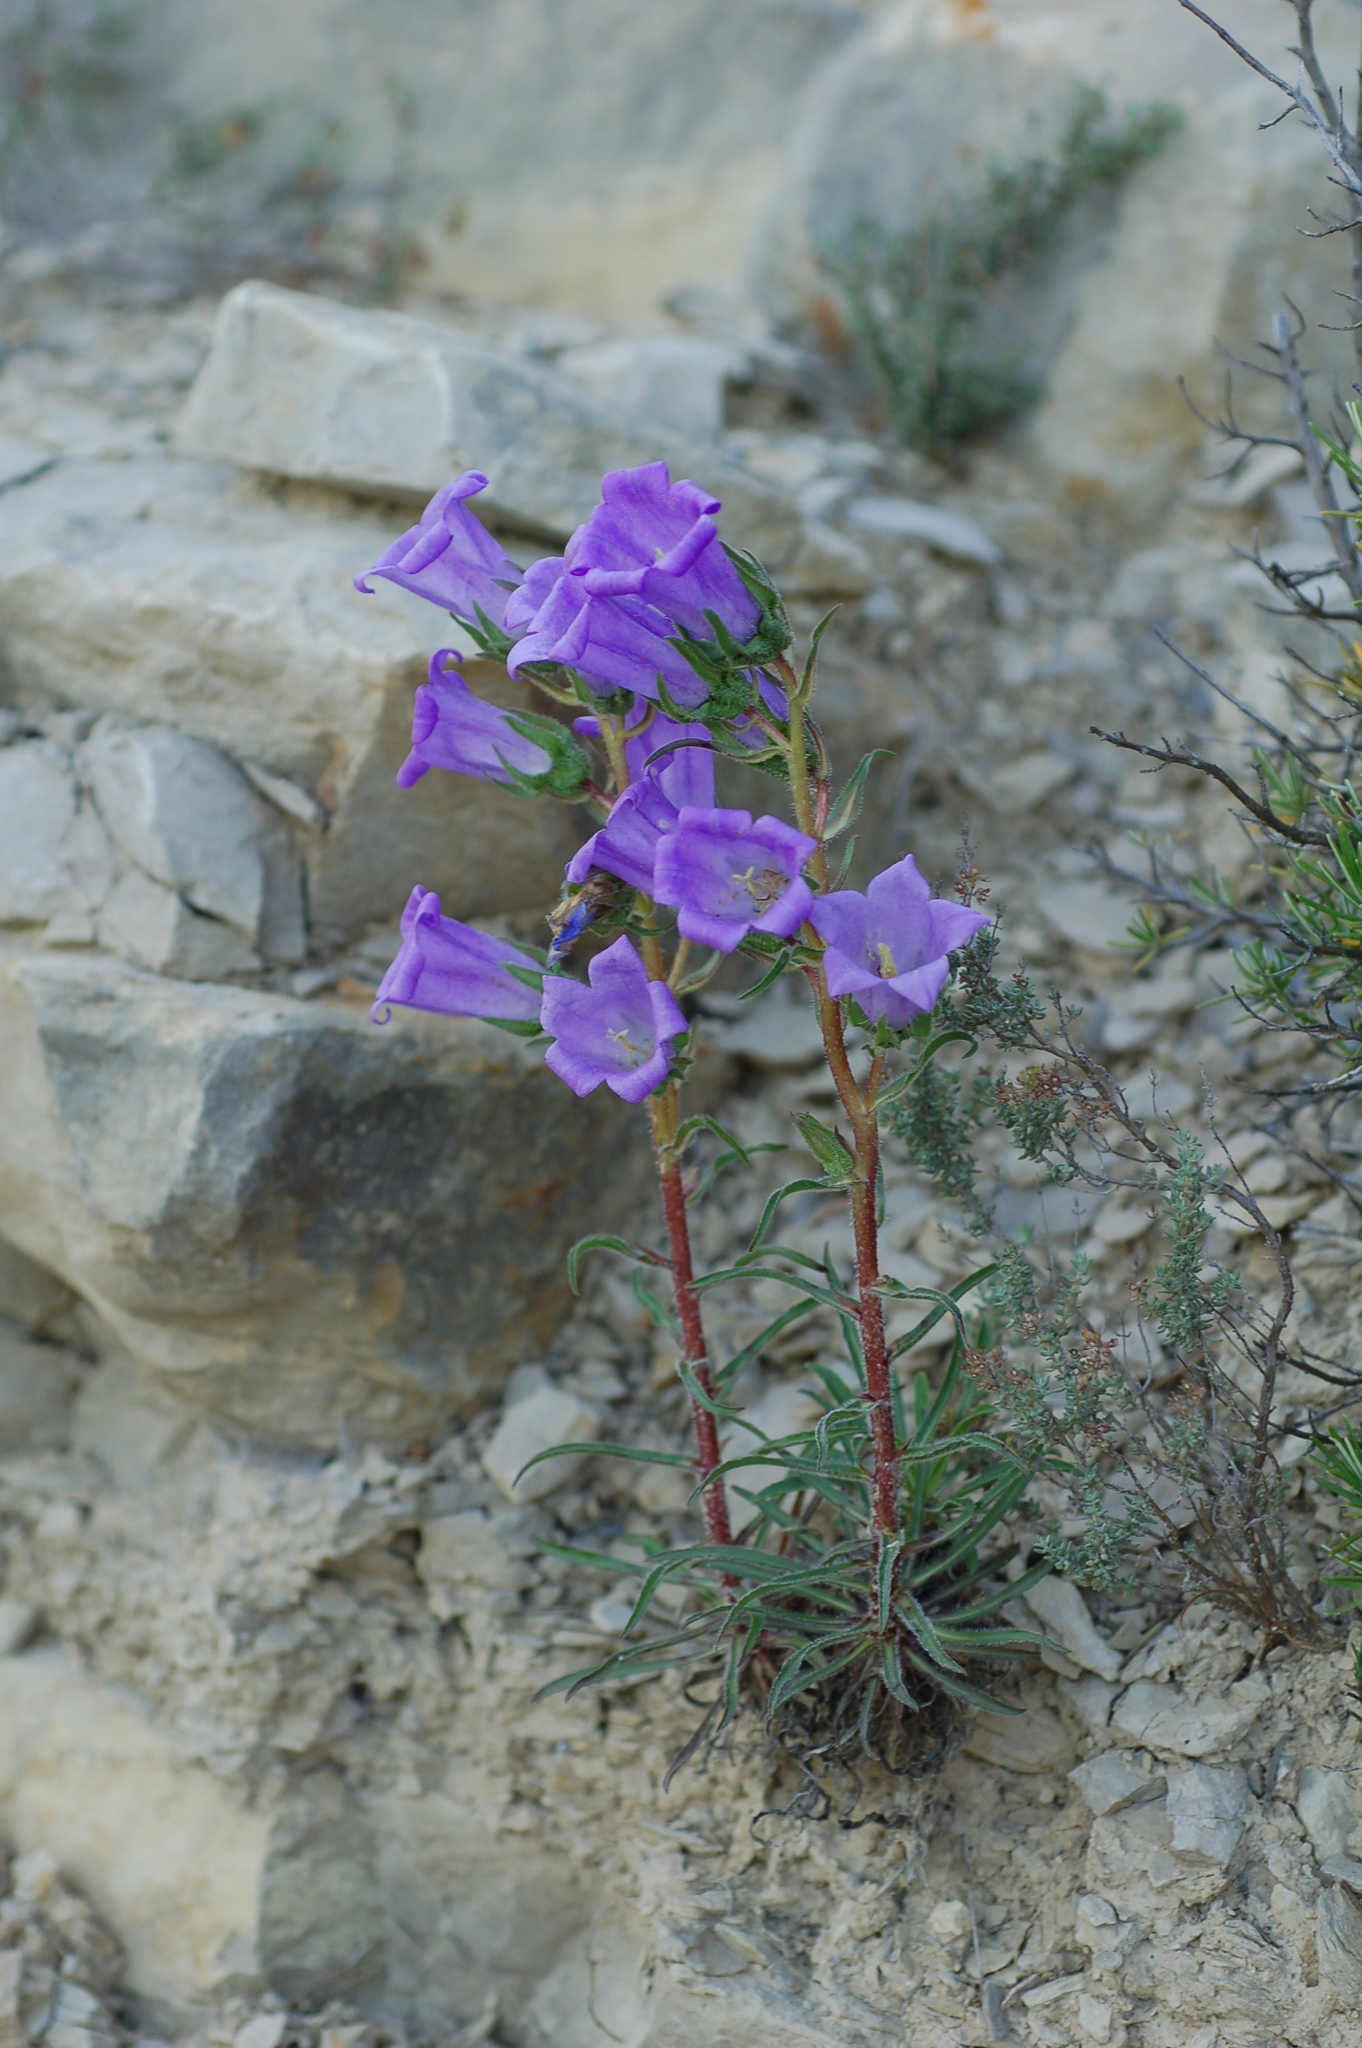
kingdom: Plantae
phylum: Tracheophyta
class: Magnoliopsida
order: Asterales
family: Campanulaceae
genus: Campanula
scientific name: Campanula speciosa
